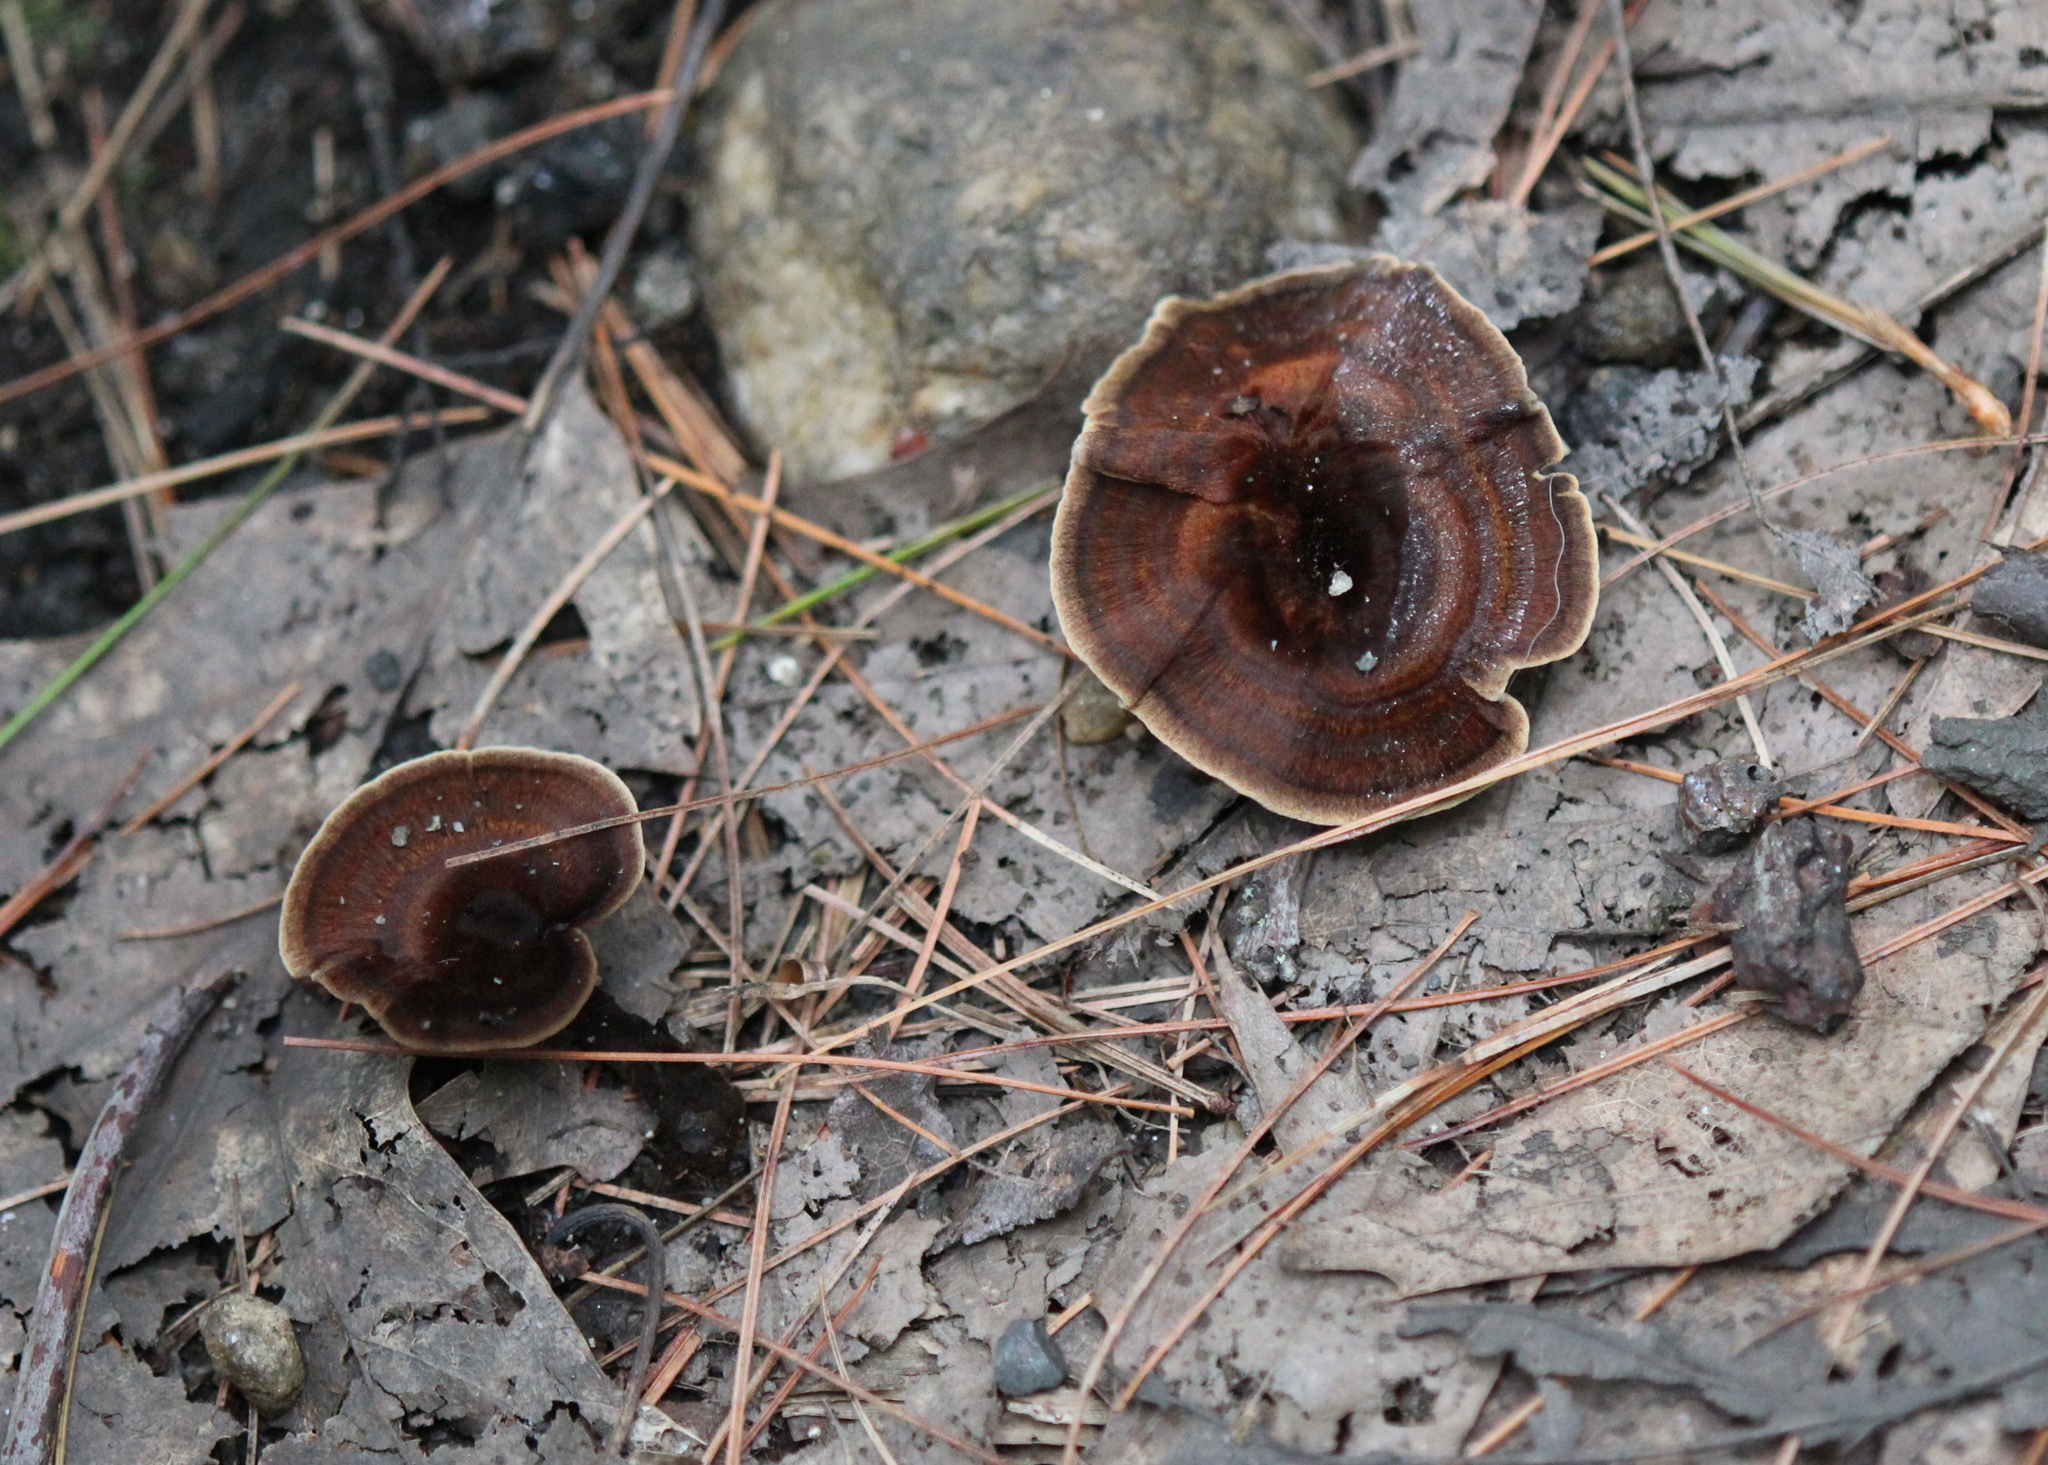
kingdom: Fungi
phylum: Basidiomycota
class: Agaricomycetes
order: Hymenochaetales
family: Hymenochaetaceae
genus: Coltricia
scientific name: Coltricia cinnamomea
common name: Shiny cinnamon polypore
